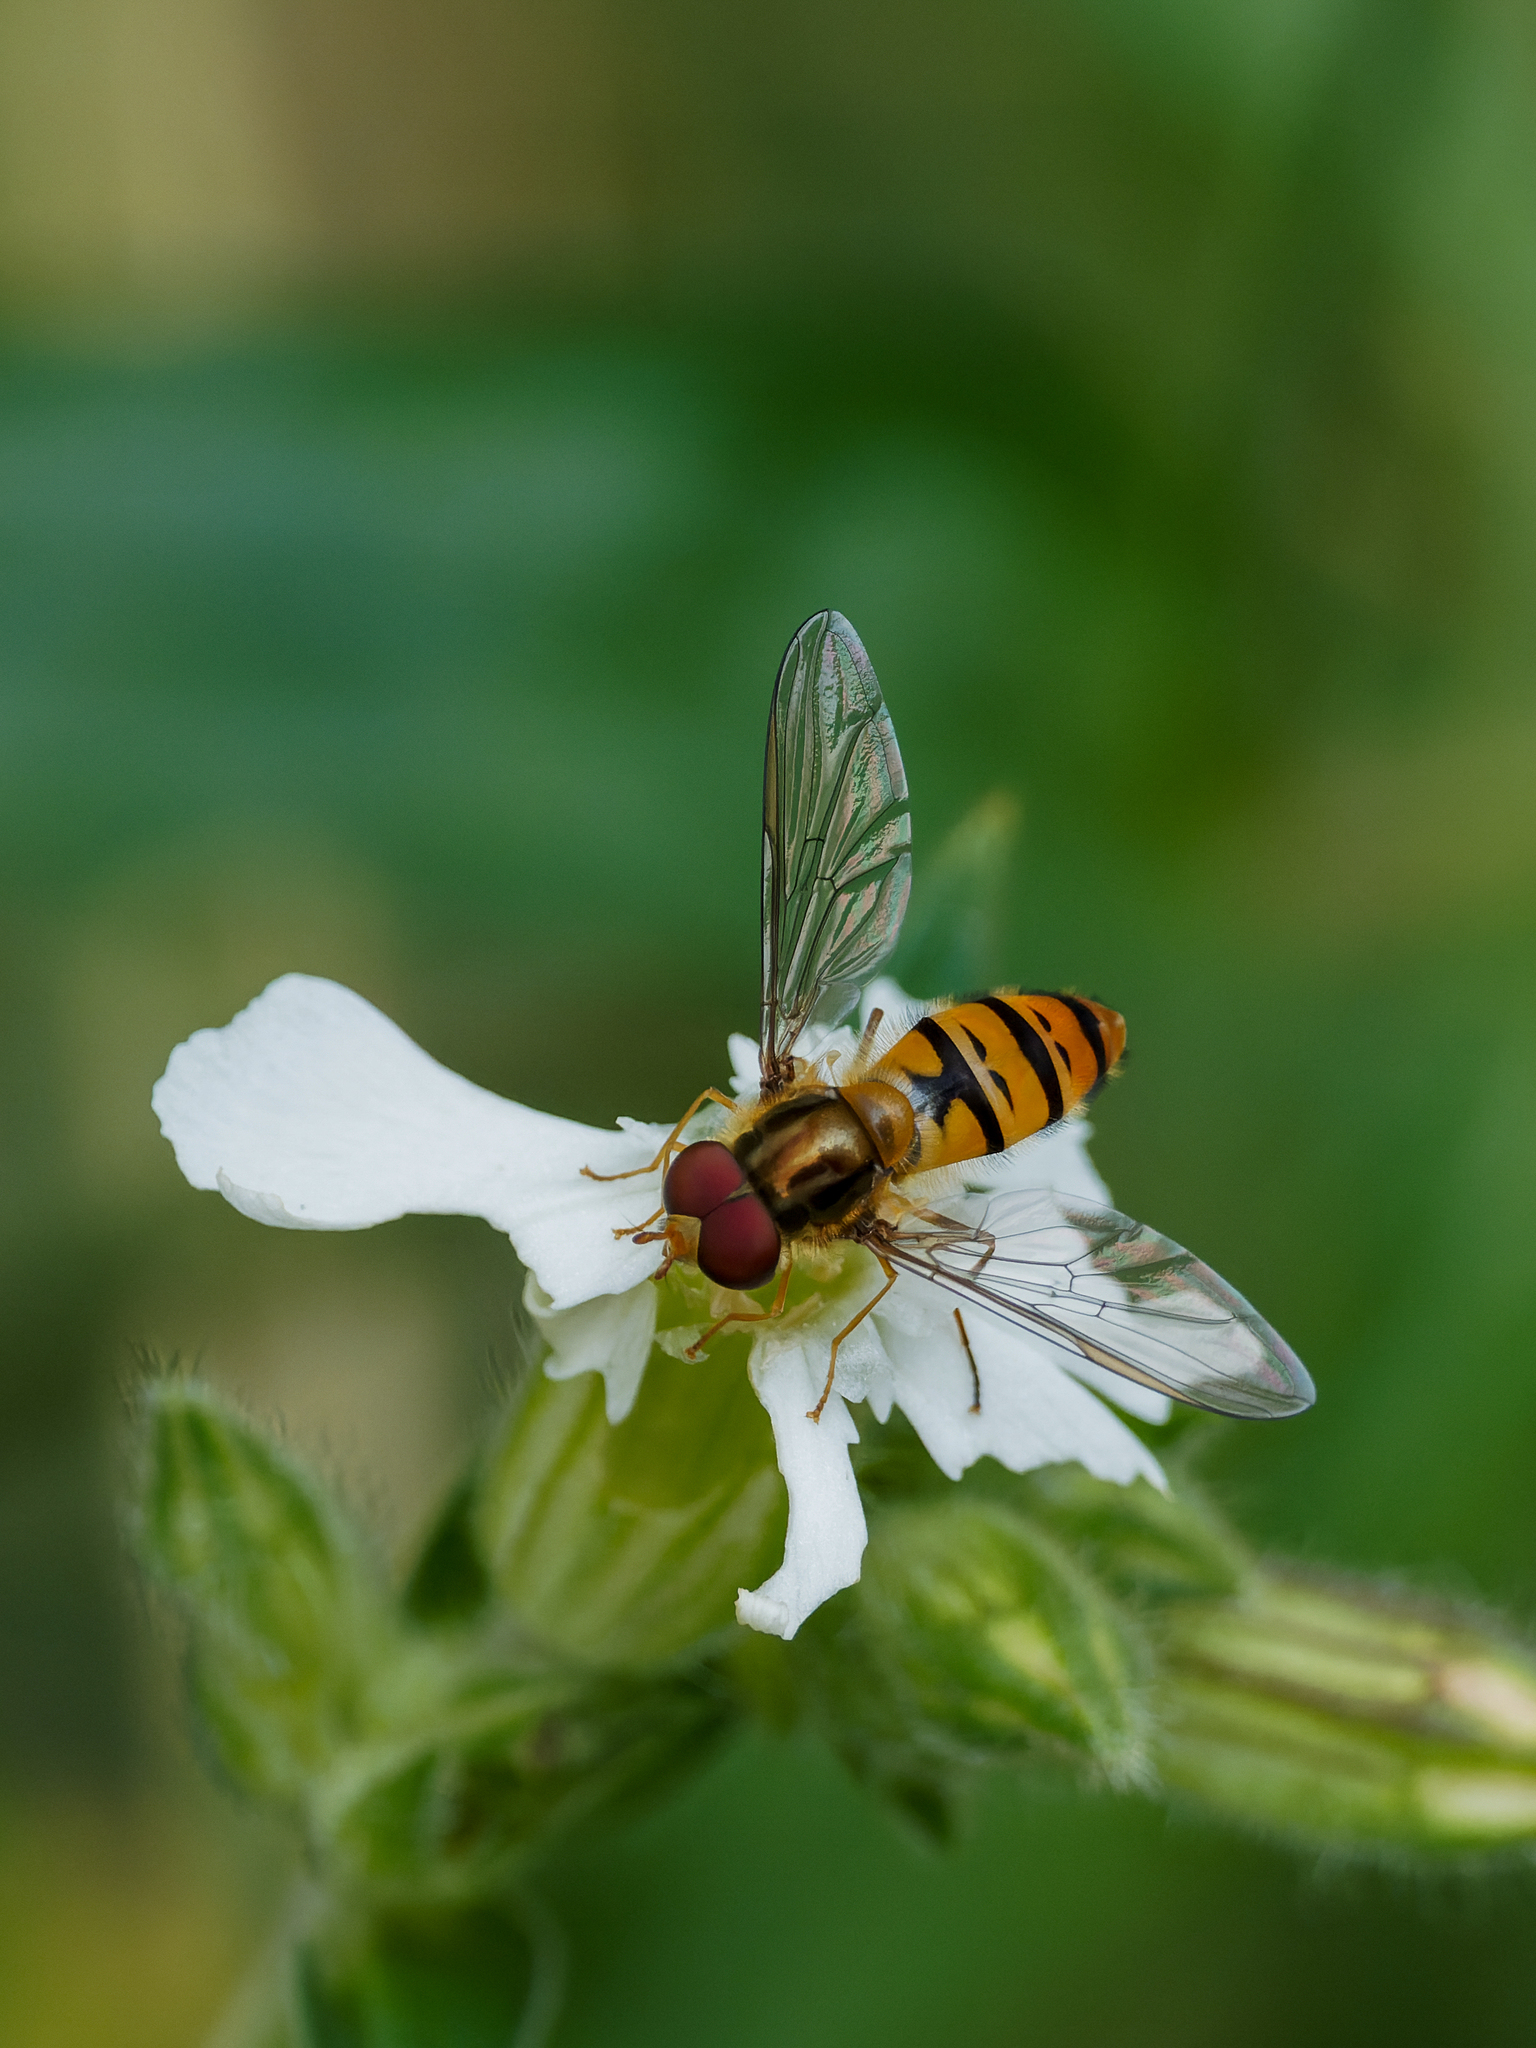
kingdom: Animalia
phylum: Arthropoda
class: Insecta
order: Diptera
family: Syrphidae
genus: Episyrphus
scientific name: Episyrphus balteatus
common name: Marmalade hoverfly
